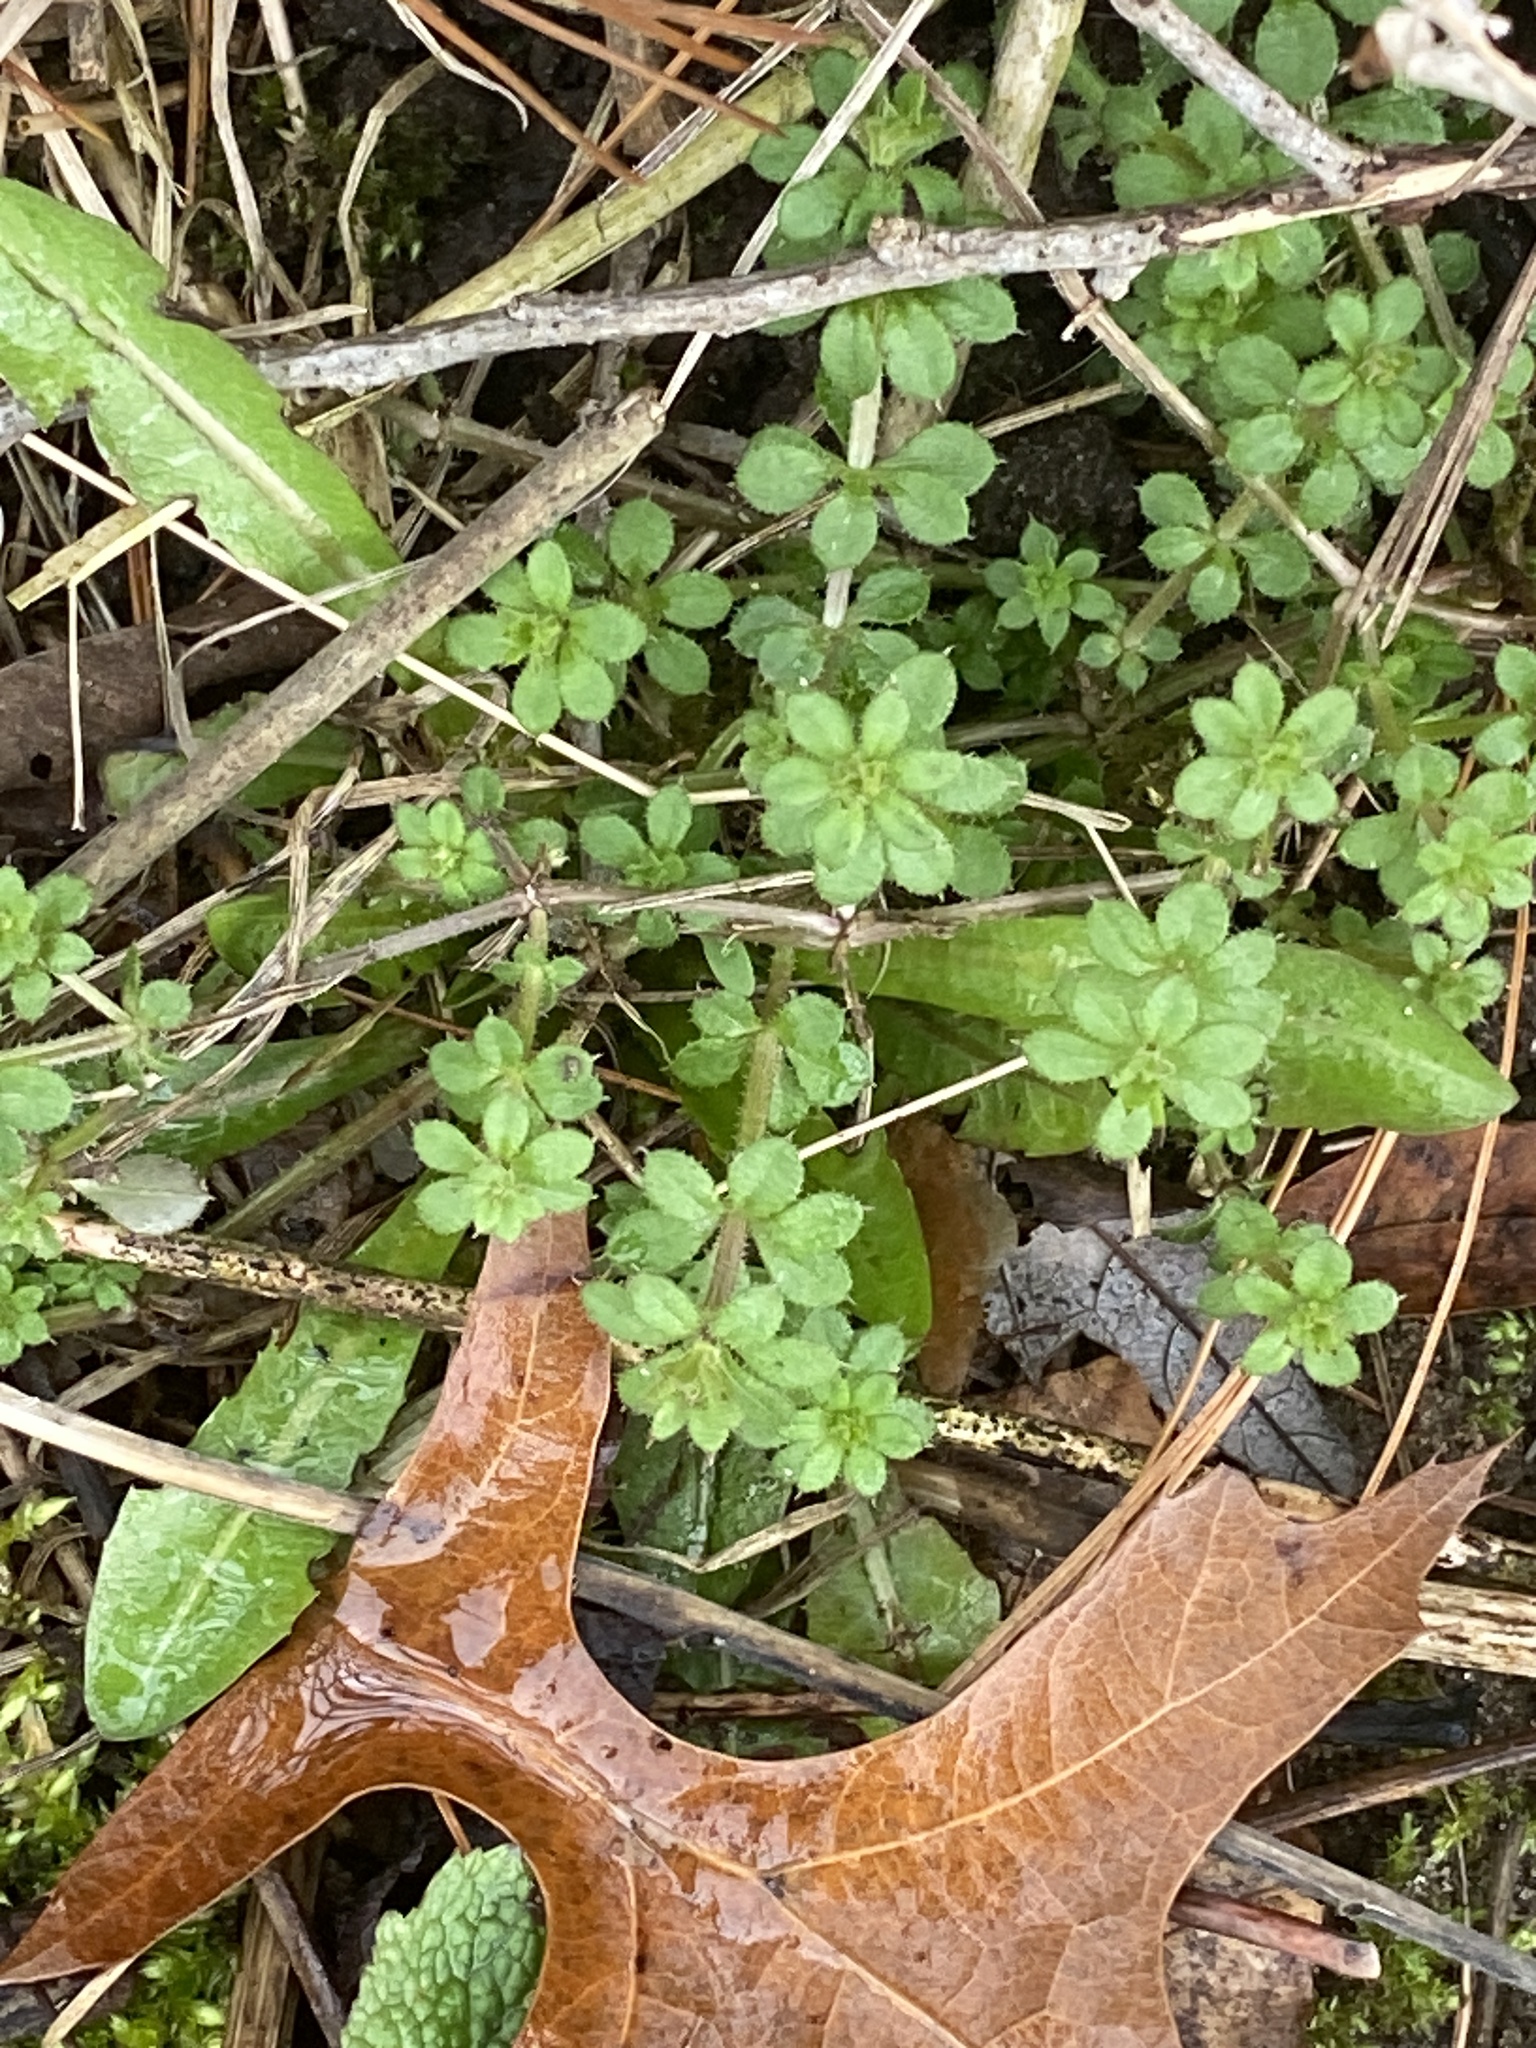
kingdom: Plantae
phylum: Tracheophyta
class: Magnoliopsida
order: Gentianales
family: Rubiaceae
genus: Galium
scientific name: Galium aparine
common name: Cleavers
